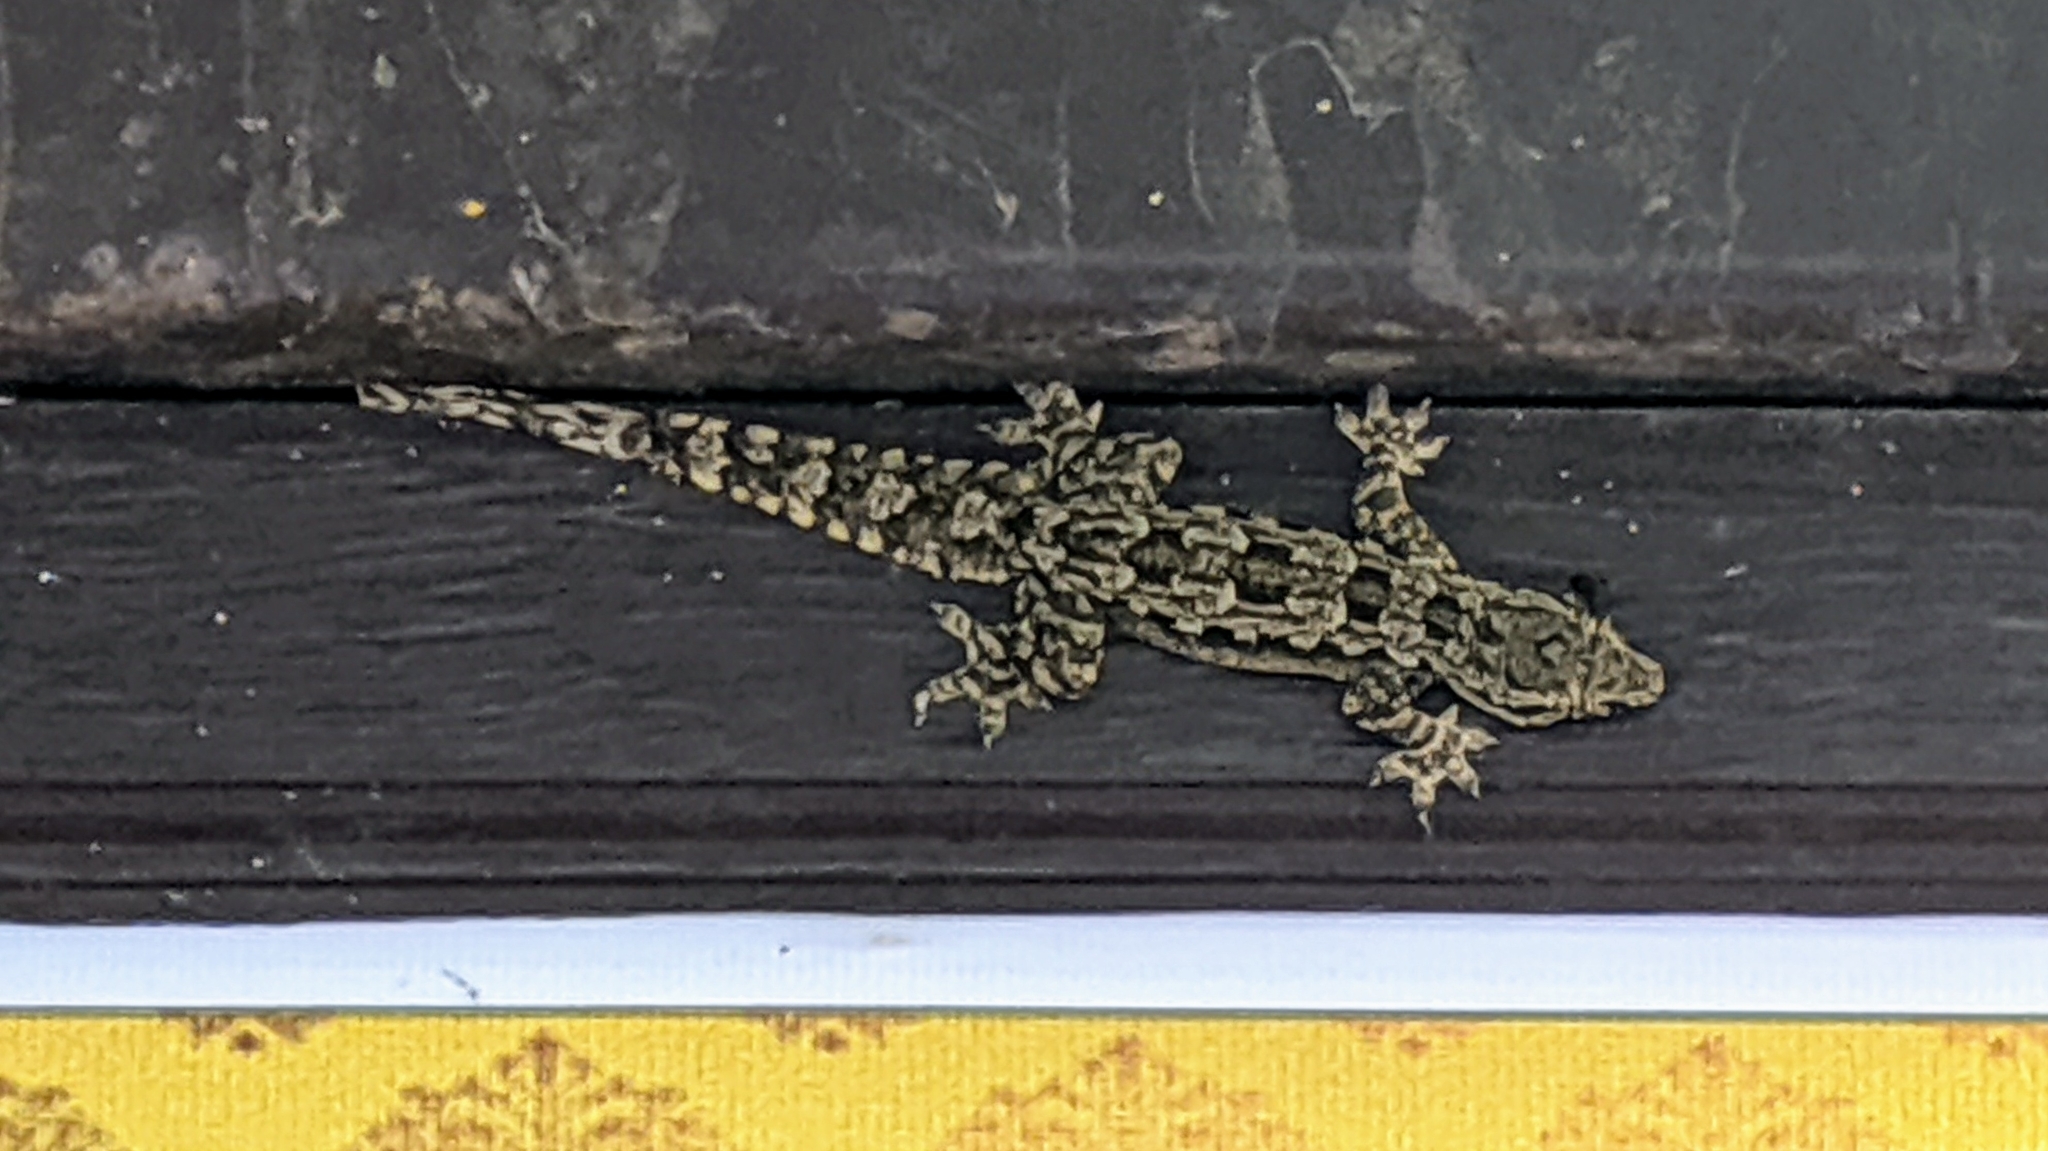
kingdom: Animalia
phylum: Chordata
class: Squamata
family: Gekkonidae
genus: Hemidactylus
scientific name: Hemidactylus platyurus
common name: Flat-tailed house gecko
